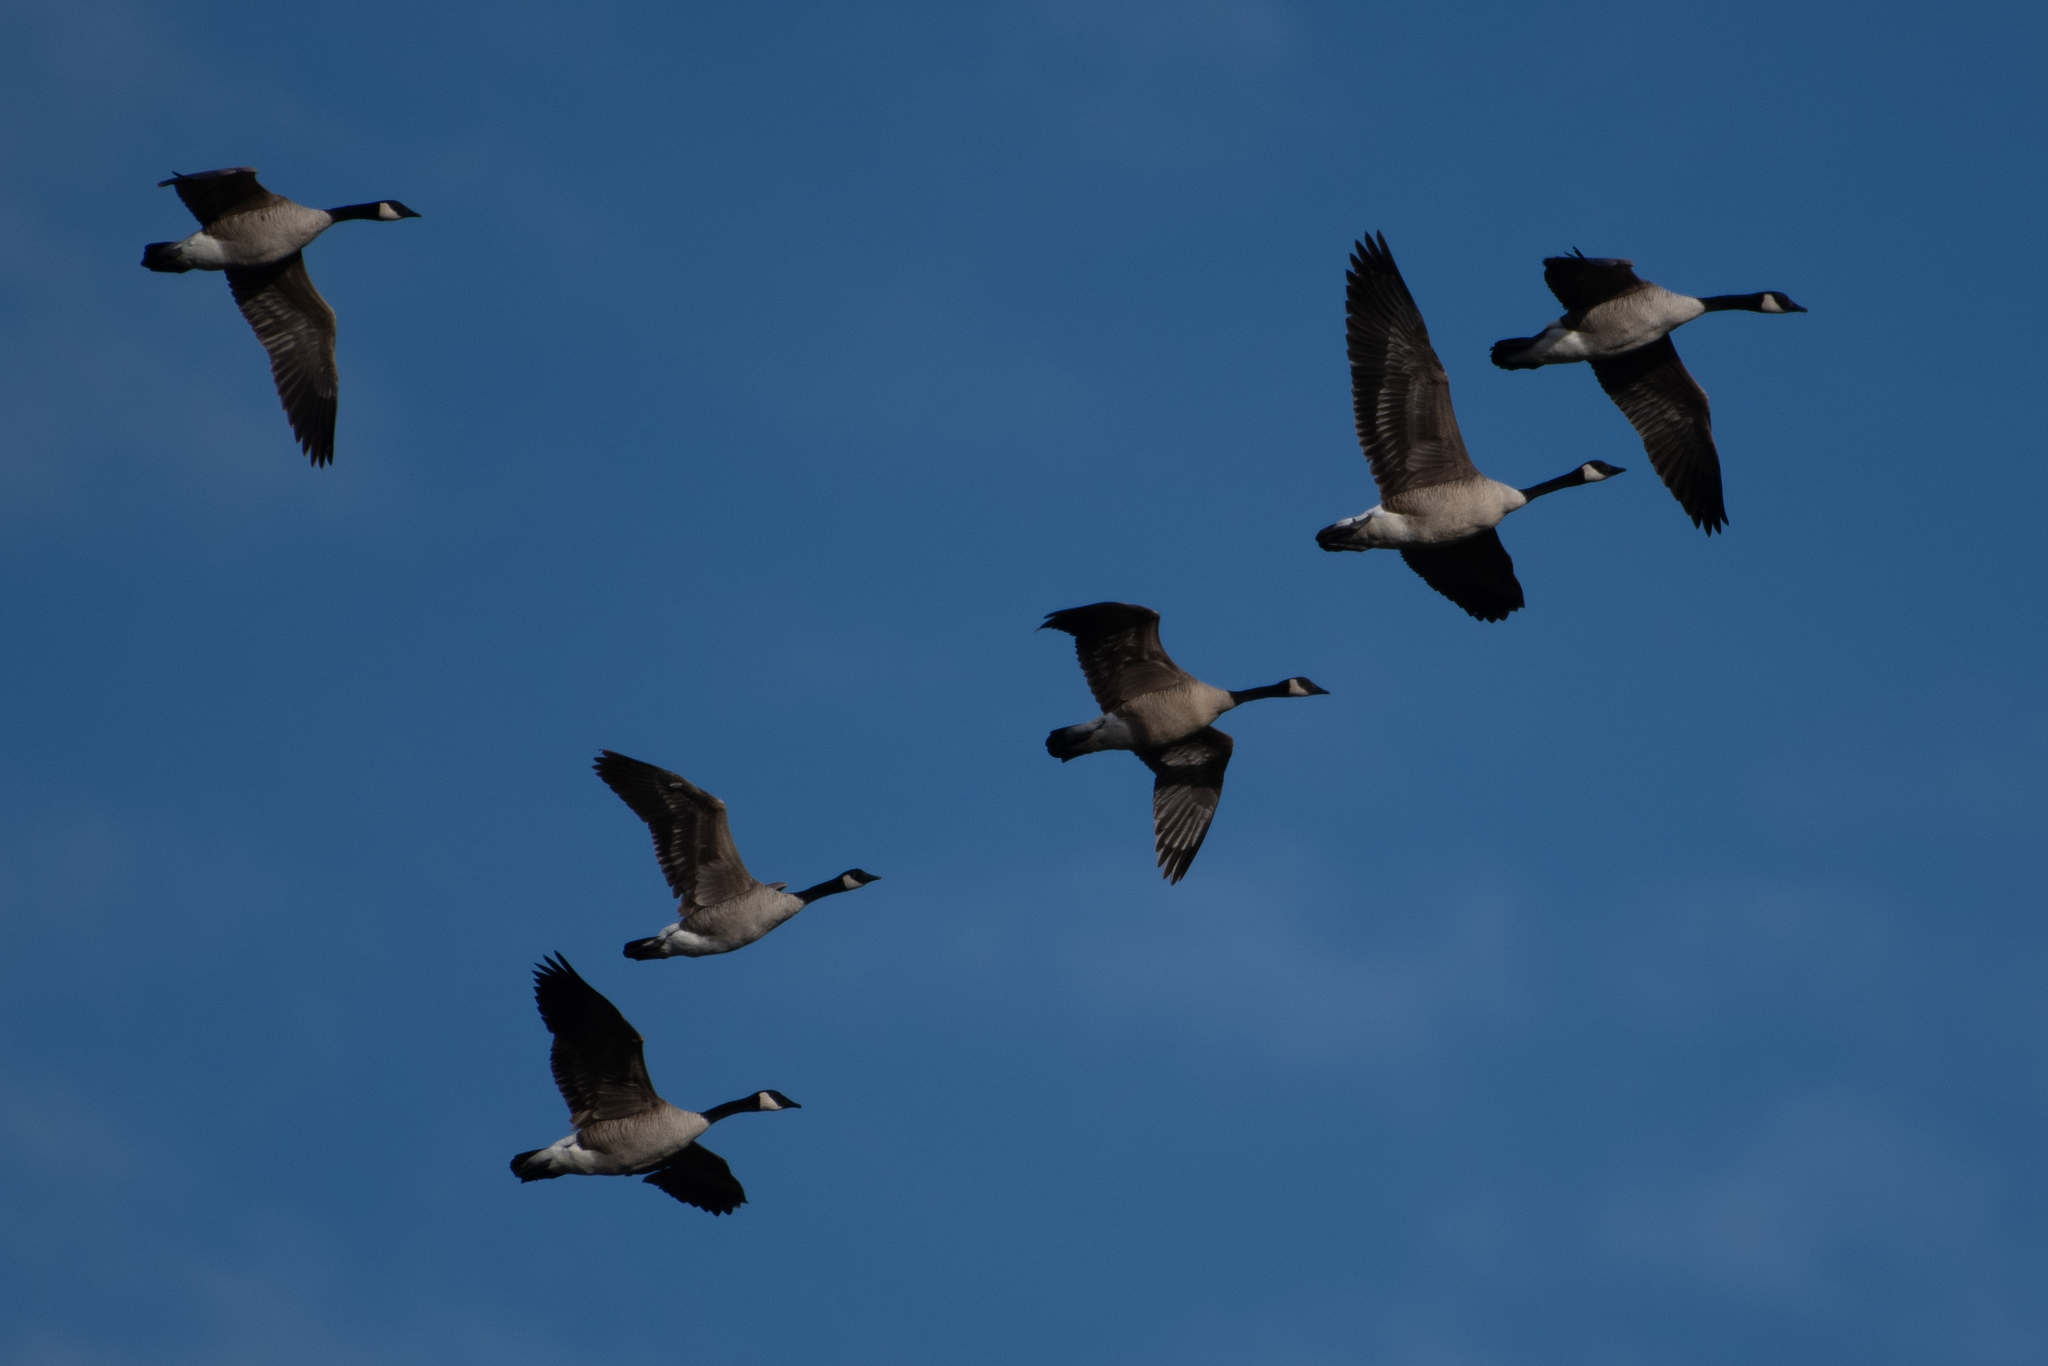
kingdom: Animalia
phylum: Chordata
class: Aves
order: Anseriformes
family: Anatidae
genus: Branta
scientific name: Branta canadensis
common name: Canada goose
